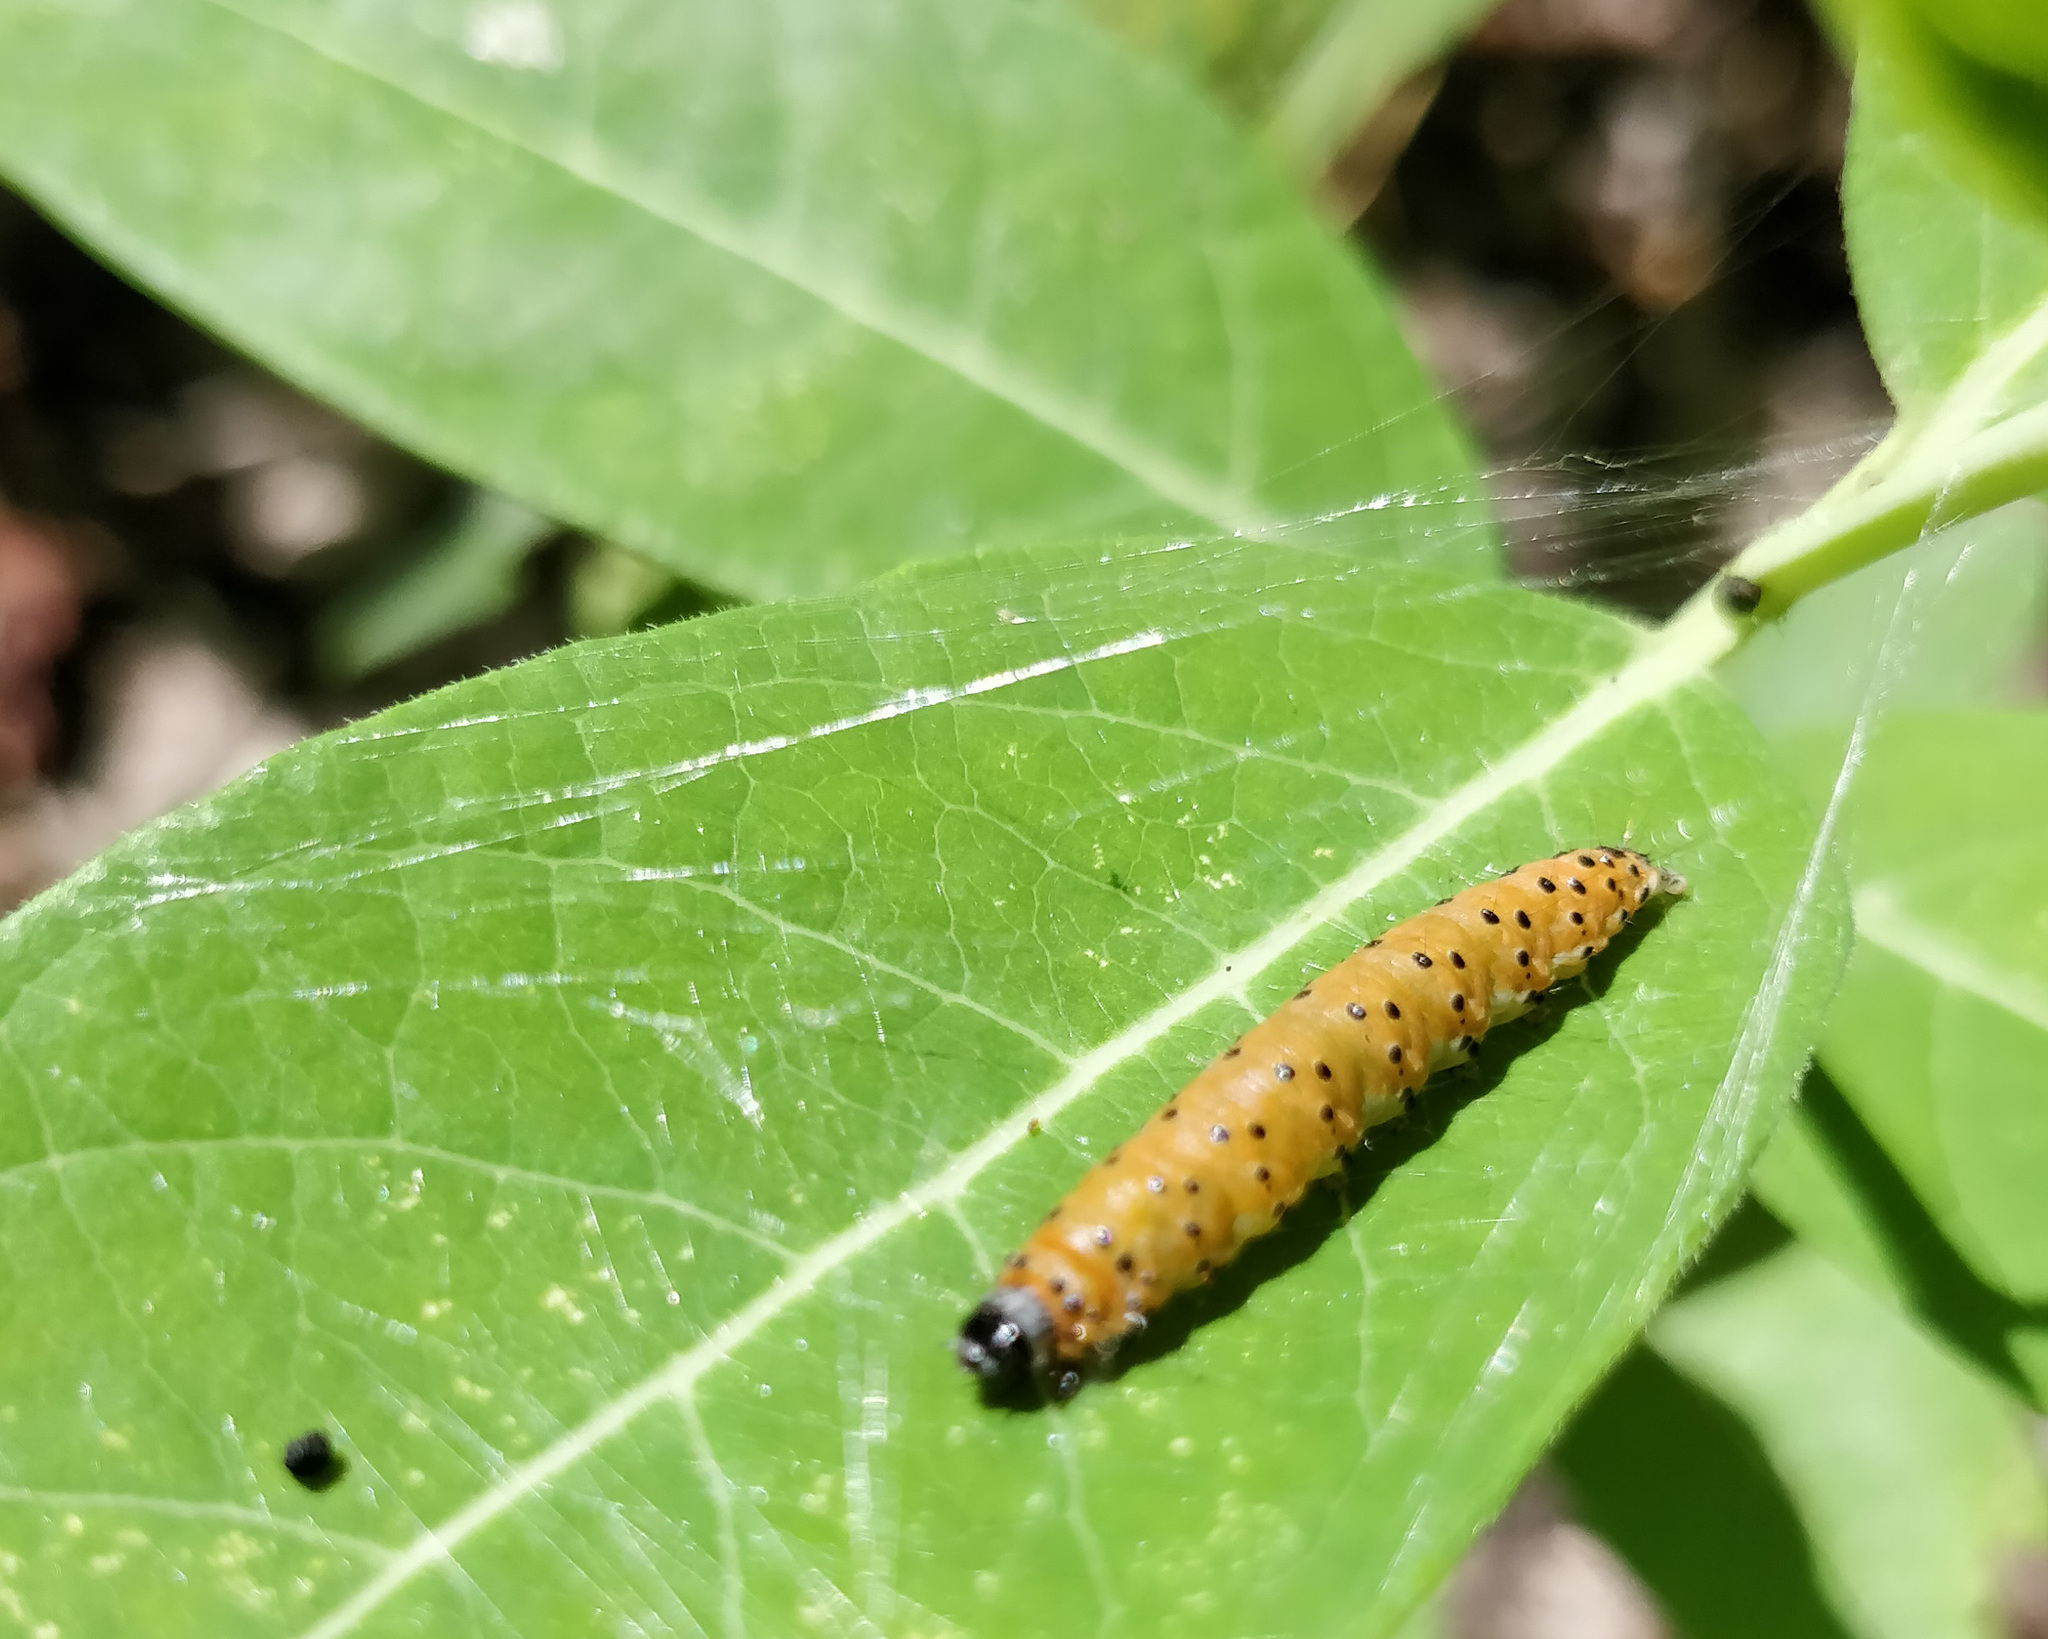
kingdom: Animalia
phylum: Arthropoda
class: Insecta
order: Lepidoptera
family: Crambidae
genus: Saucrobotys
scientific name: Saucrobotys futilalis
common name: Dogbane saucrobotys moth
